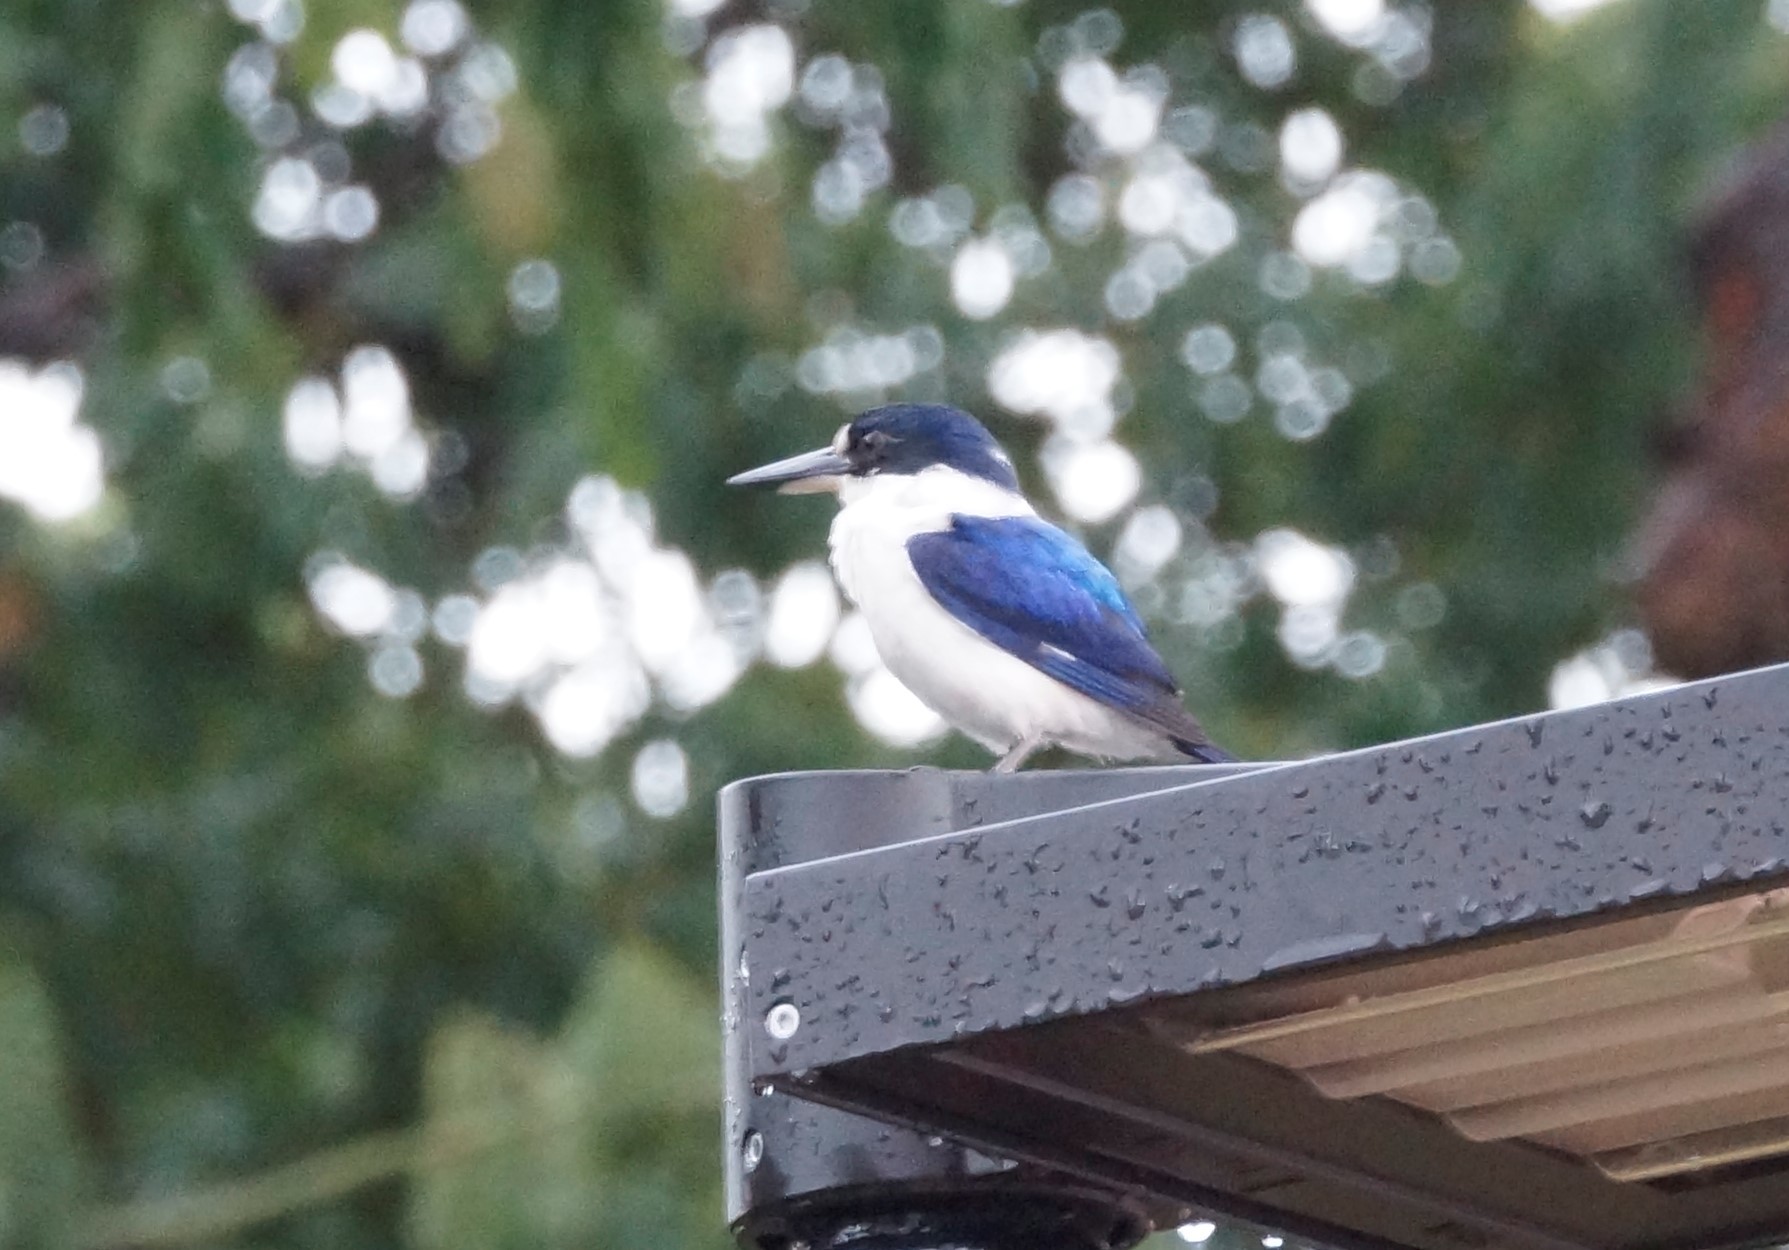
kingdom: Animalia
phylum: Chordata
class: Aves
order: Coraciiformes
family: Alcedinidae
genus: Todiramphus
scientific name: Todiramphus macleayii
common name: Forest kingfisher
